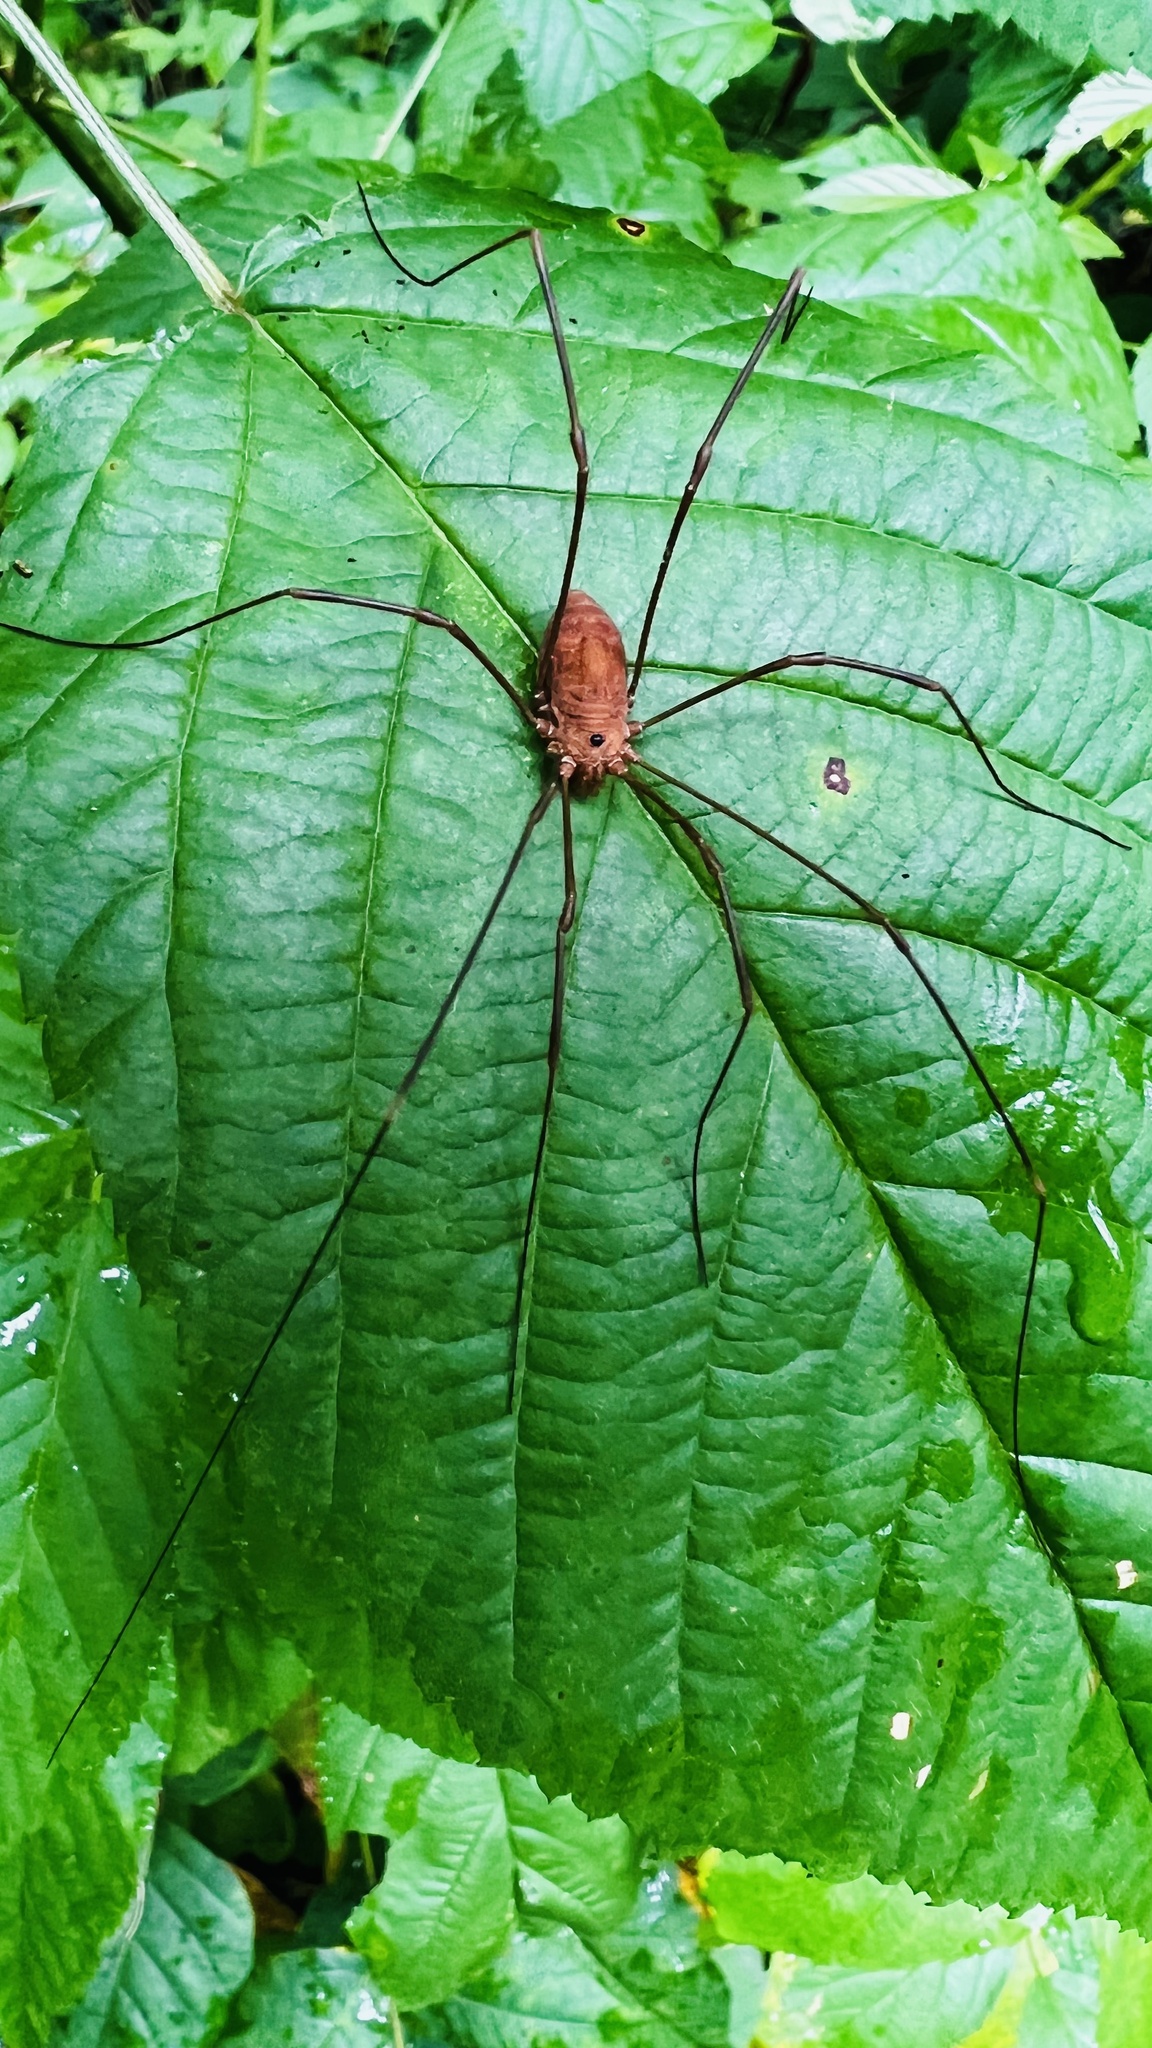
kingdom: Animalia
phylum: Arthropoda
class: Arachnida
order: Opiliones
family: Sclerosomatidae
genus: Leiobunum
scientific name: Leiobunum ventricosum
